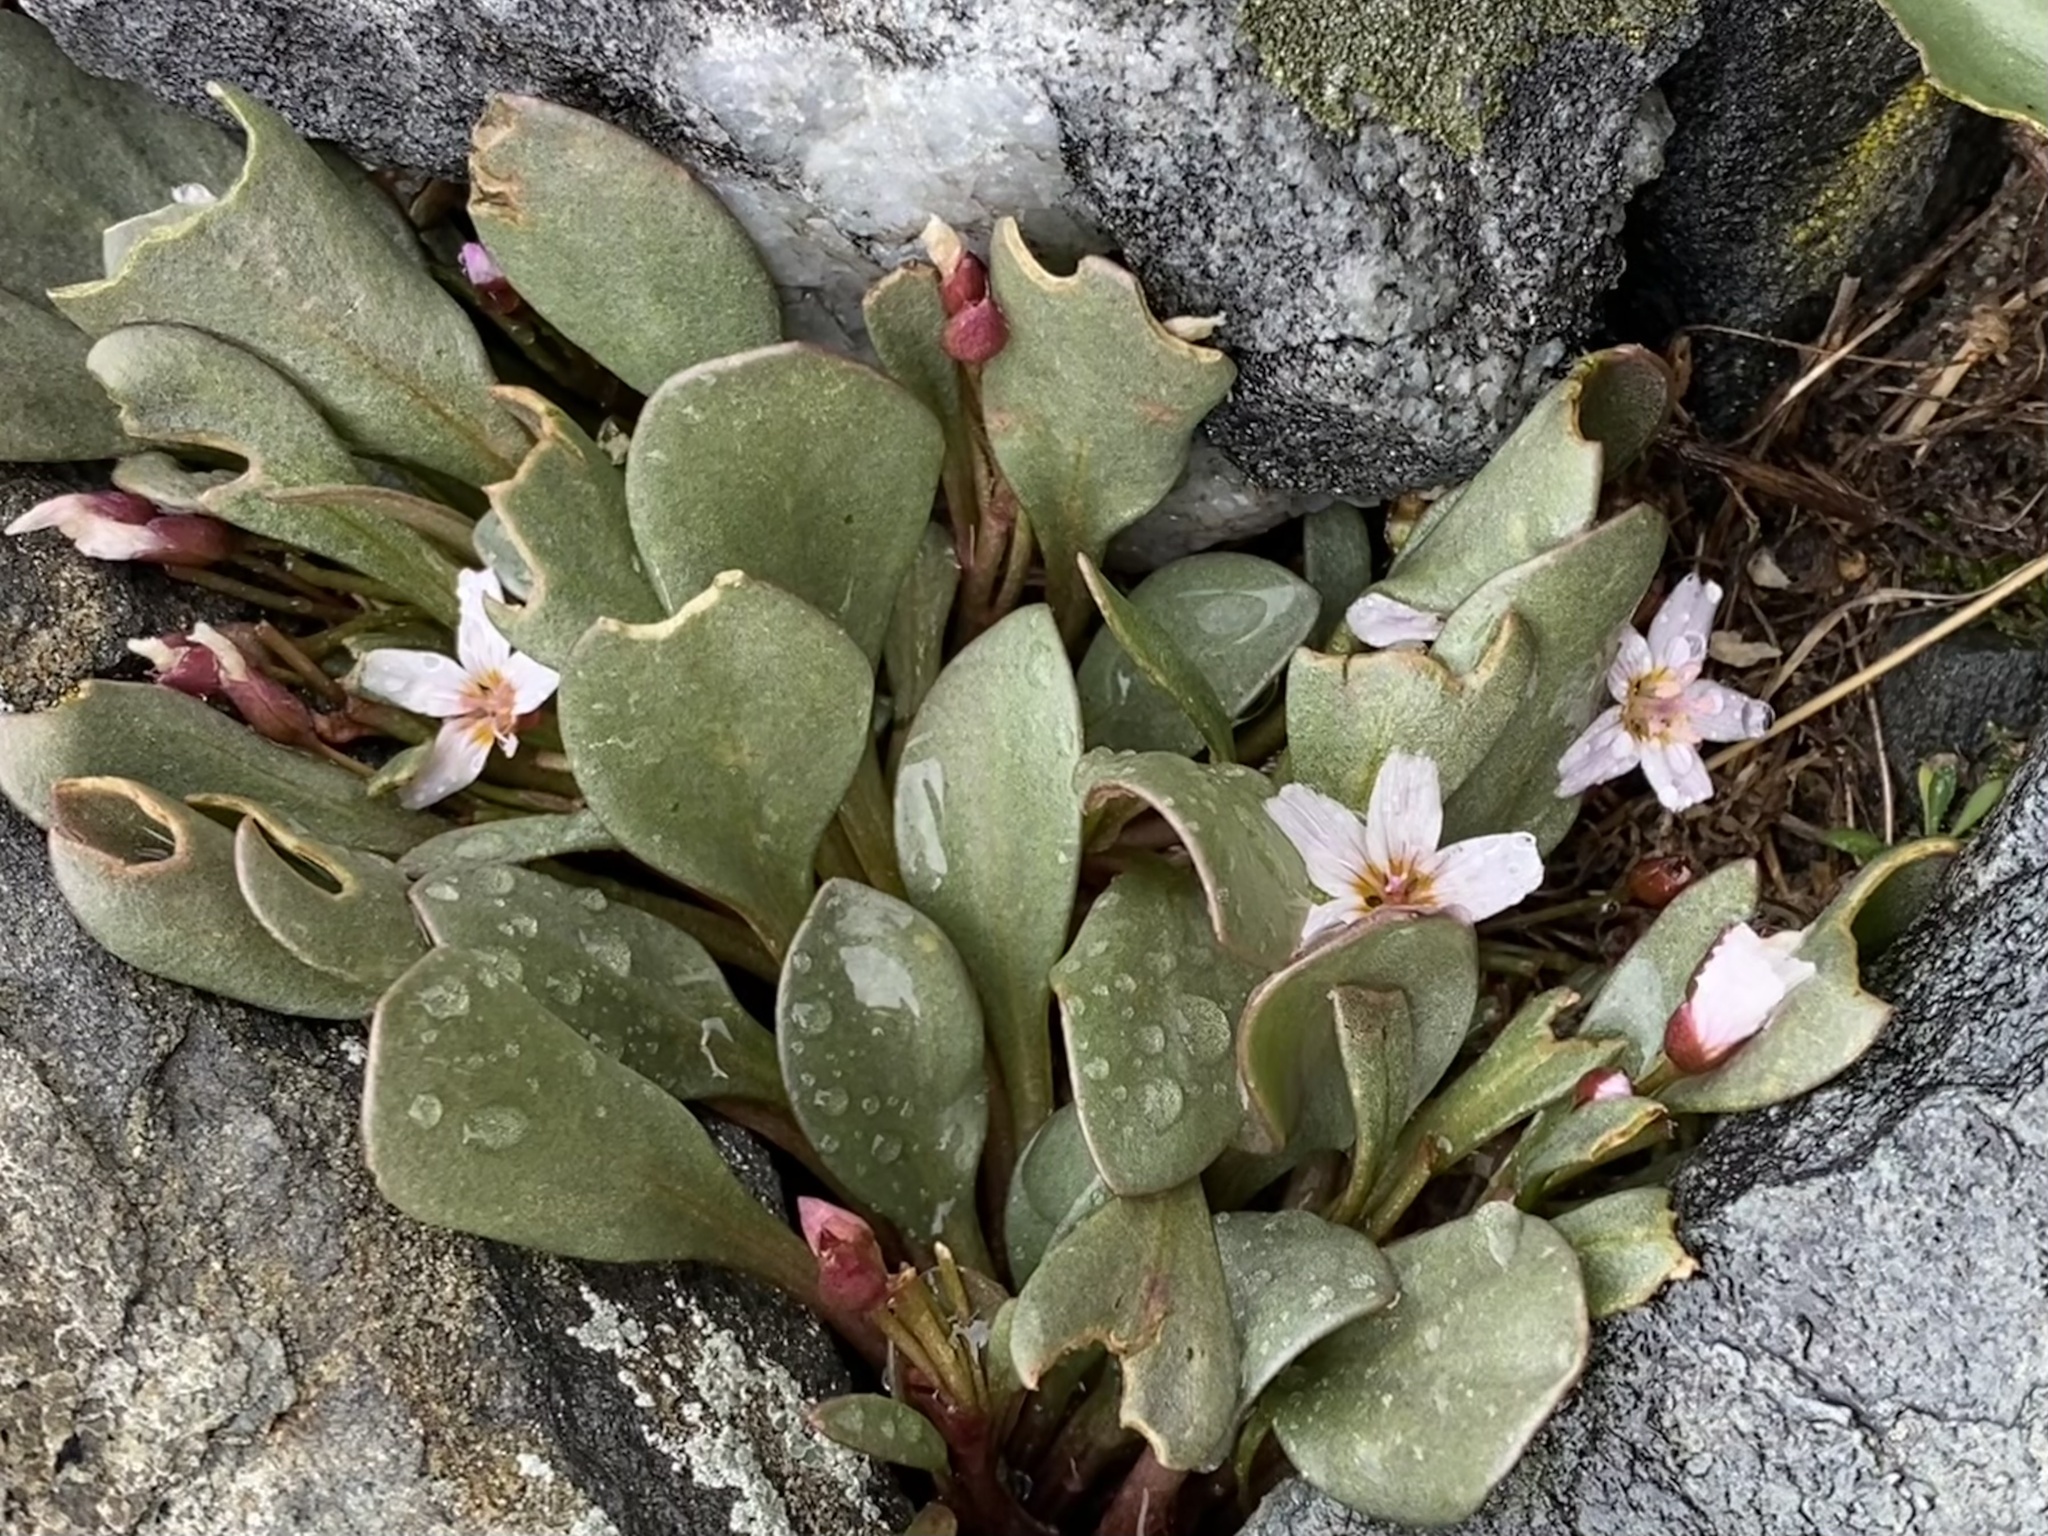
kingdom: Plantae
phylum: Tracheophyta
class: Magnoliopsida
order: Caryophyllales
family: Montiaceae
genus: Claytonia
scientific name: Claytonia megarhiza
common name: Alpine spring beauty
